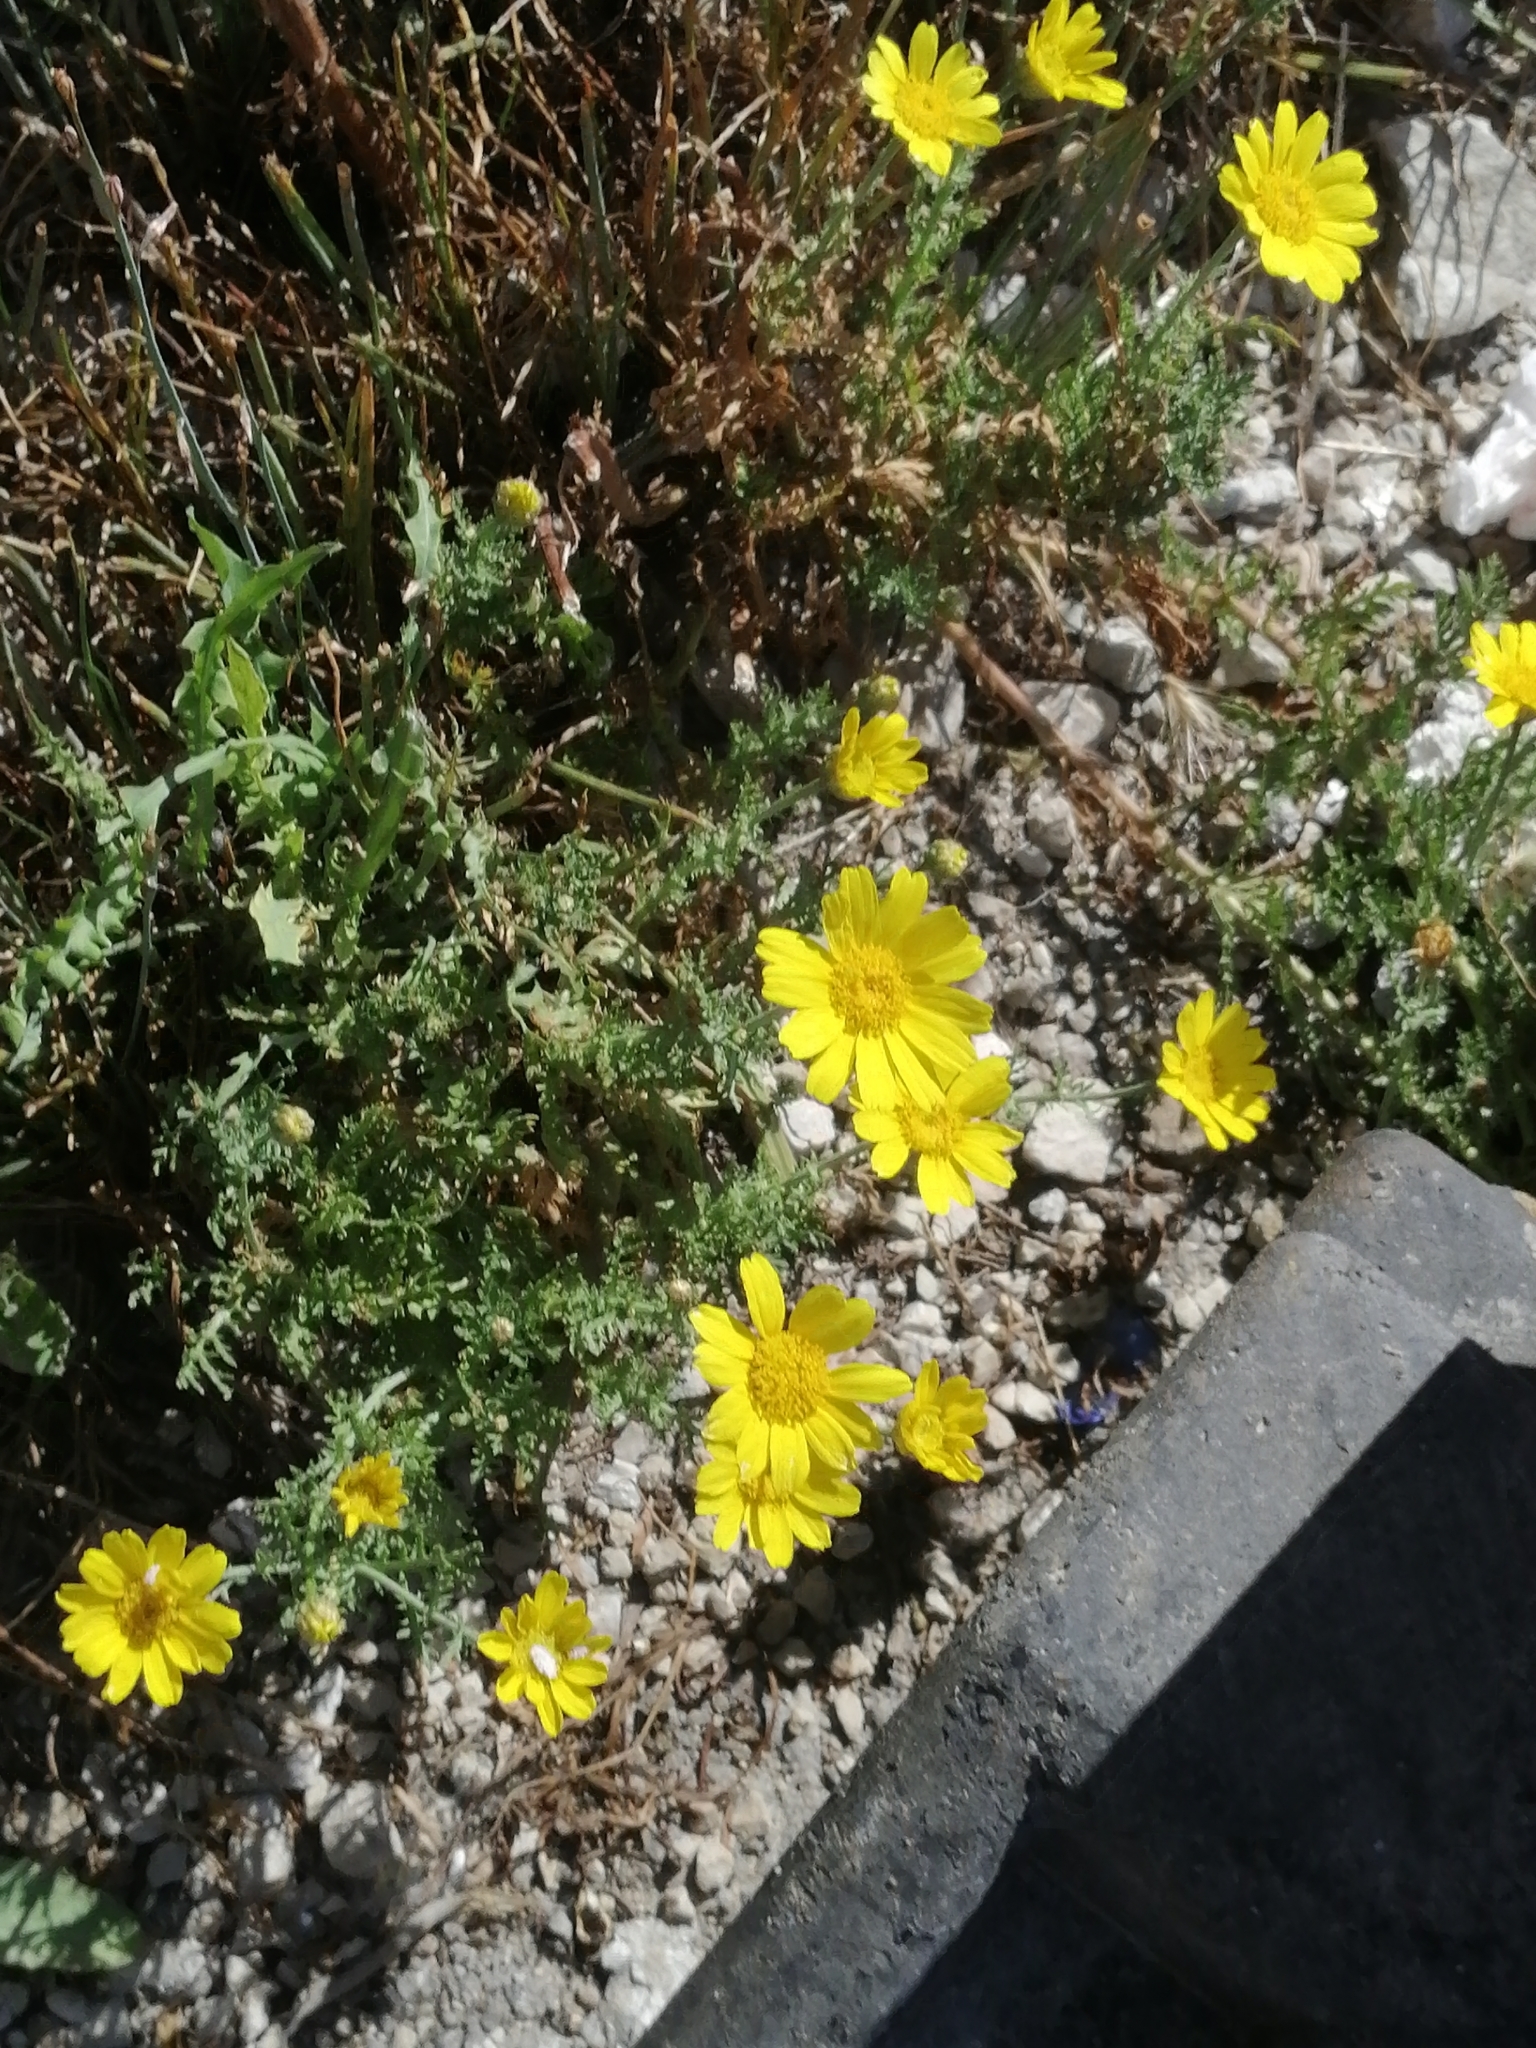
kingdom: Plantae
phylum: Tracheophyta
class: Magnoliopsida
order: Asterales
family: Asteraceae
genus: Glebionis
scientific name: Glebionis coronaria
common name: Crowndaisy
